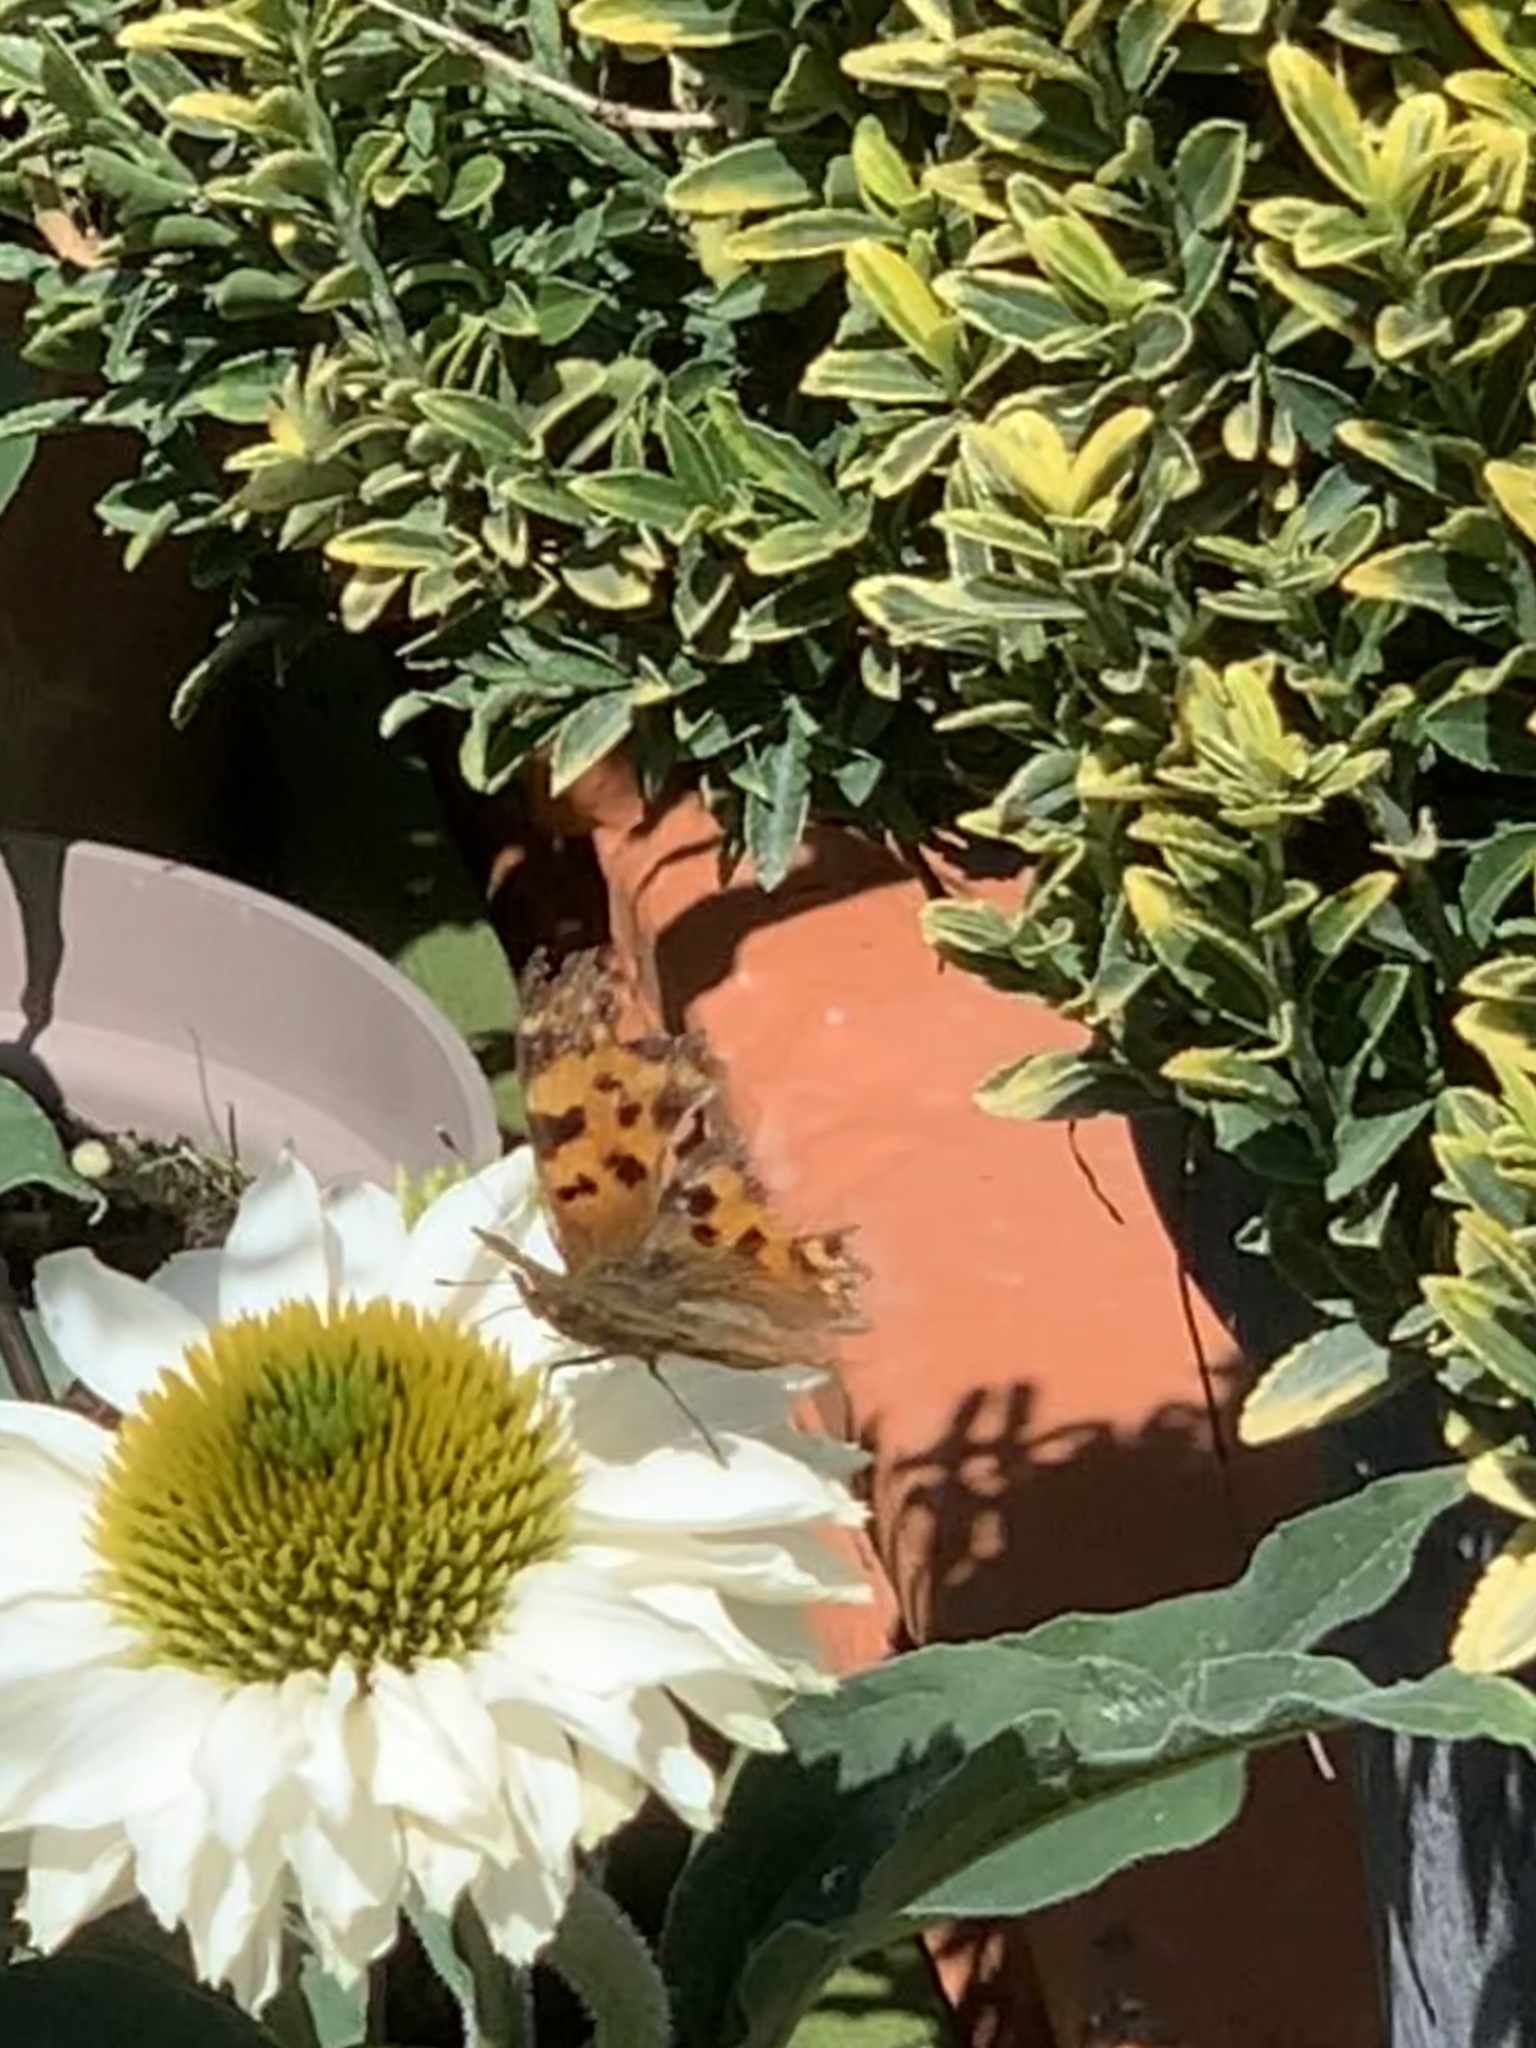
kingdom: Animalia
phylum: Arthropoda
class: Insecta
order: Lepidoptera
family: Nymphalidae
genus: Polygonia
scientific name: Polygonia c-album
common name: Comma
